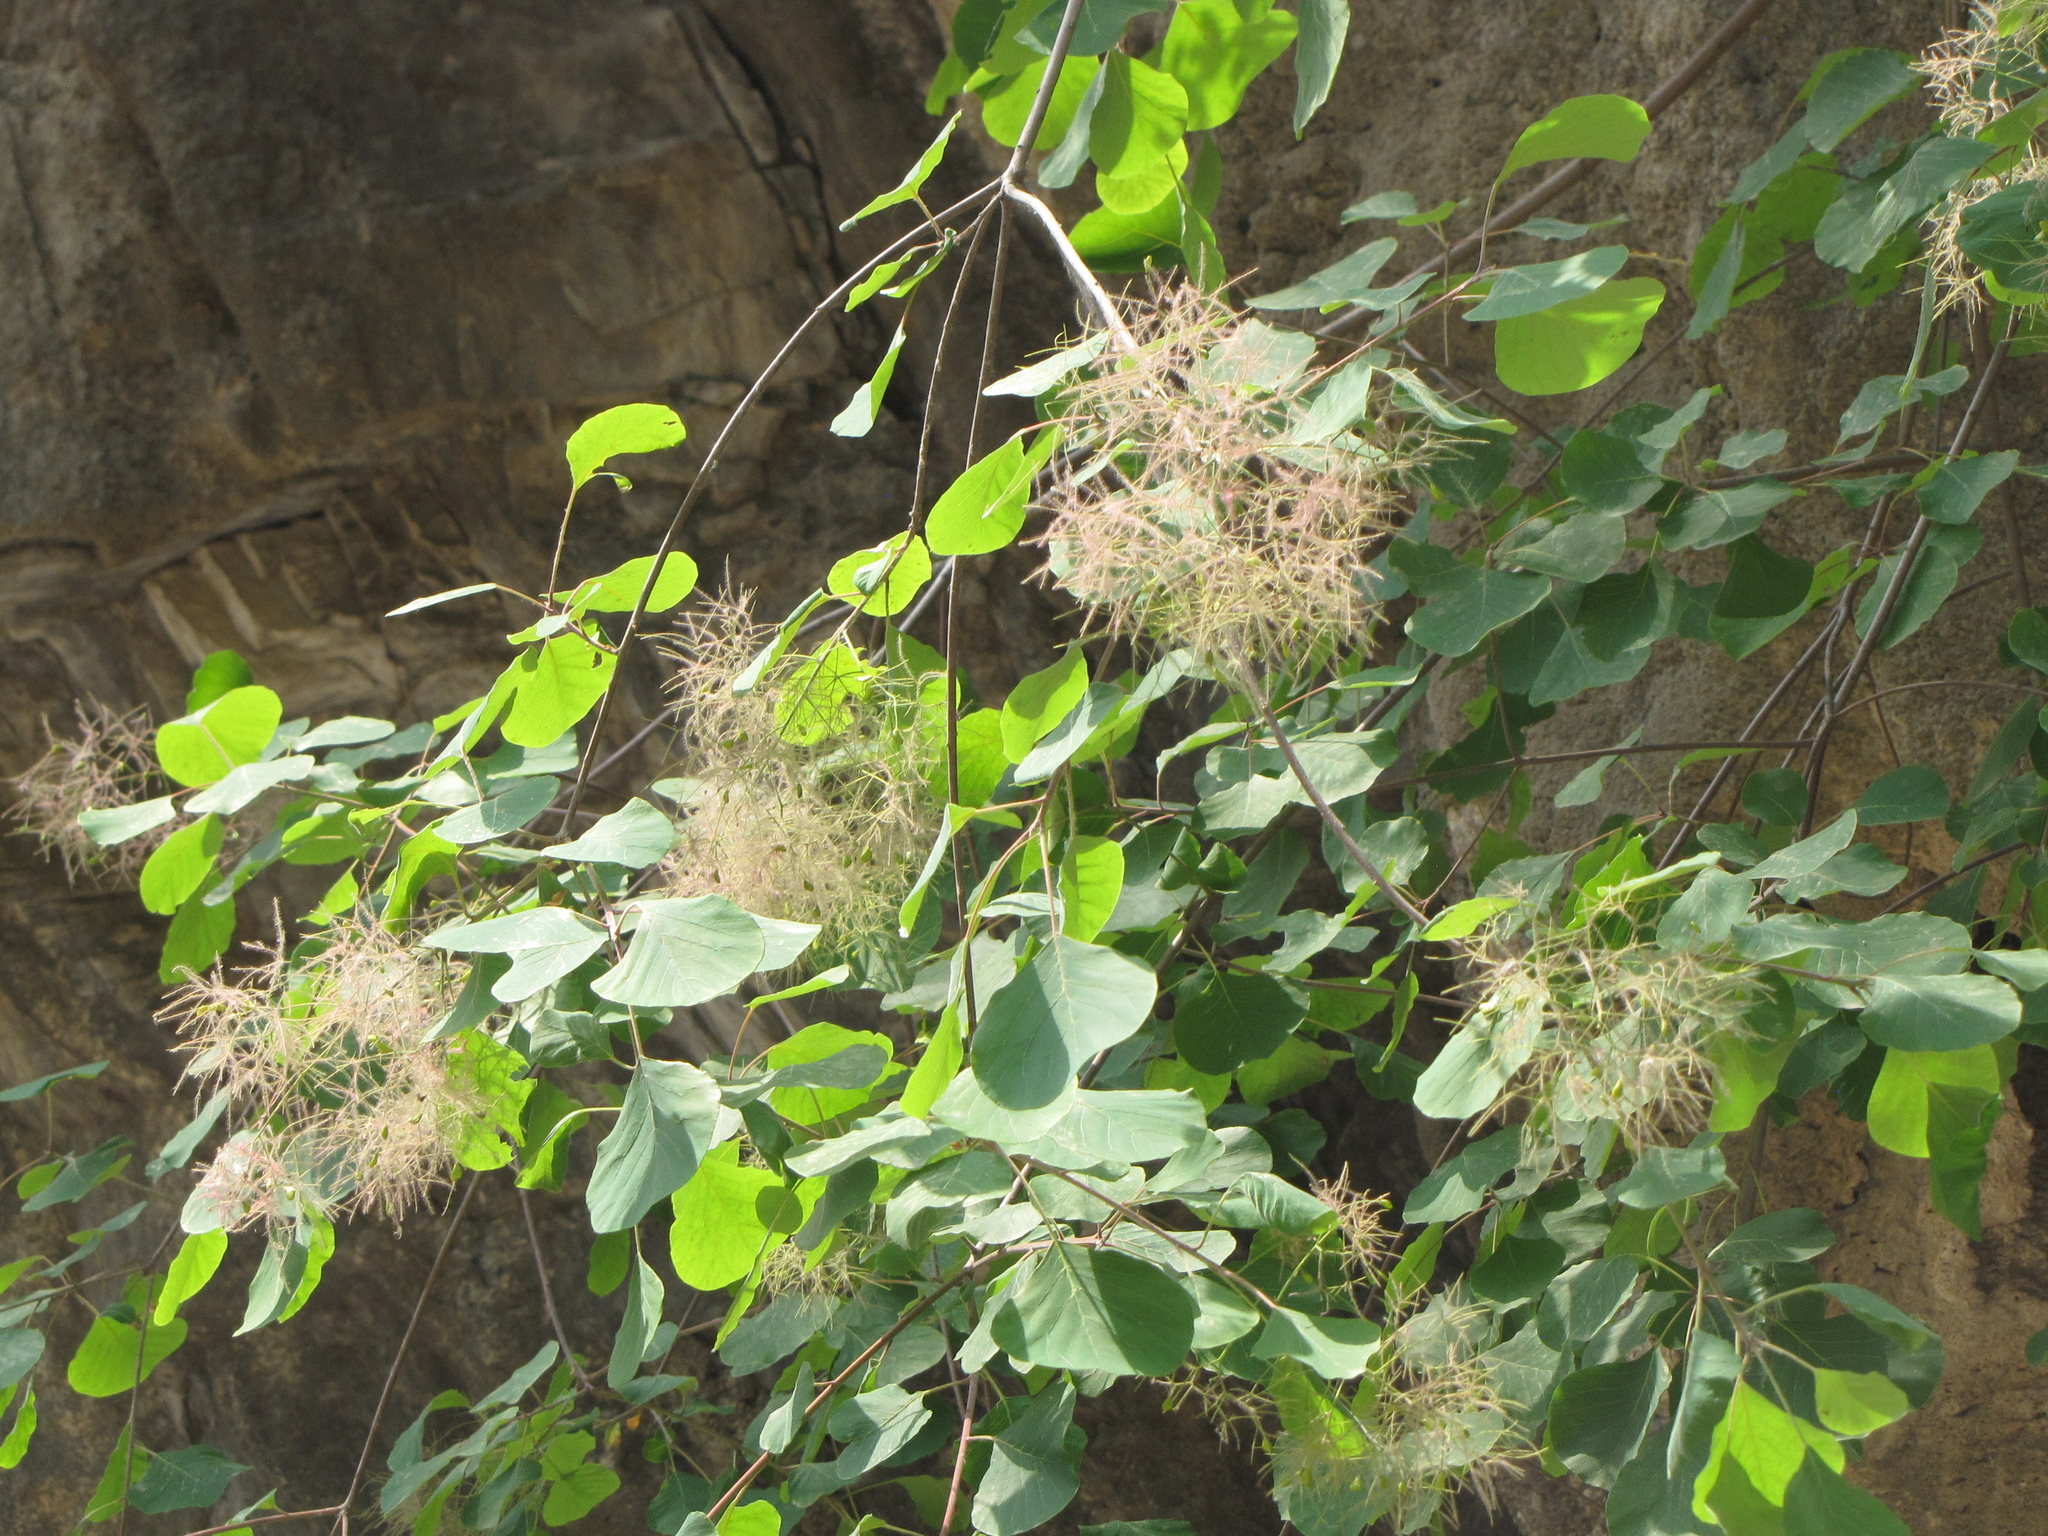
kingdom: Plantae
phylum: Tracheophyta
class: Magnoliopsida
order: Sapindales
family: Anacardiaceae
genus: Cotinus
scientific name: Cotinus coggygria
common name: Smoke-tree
